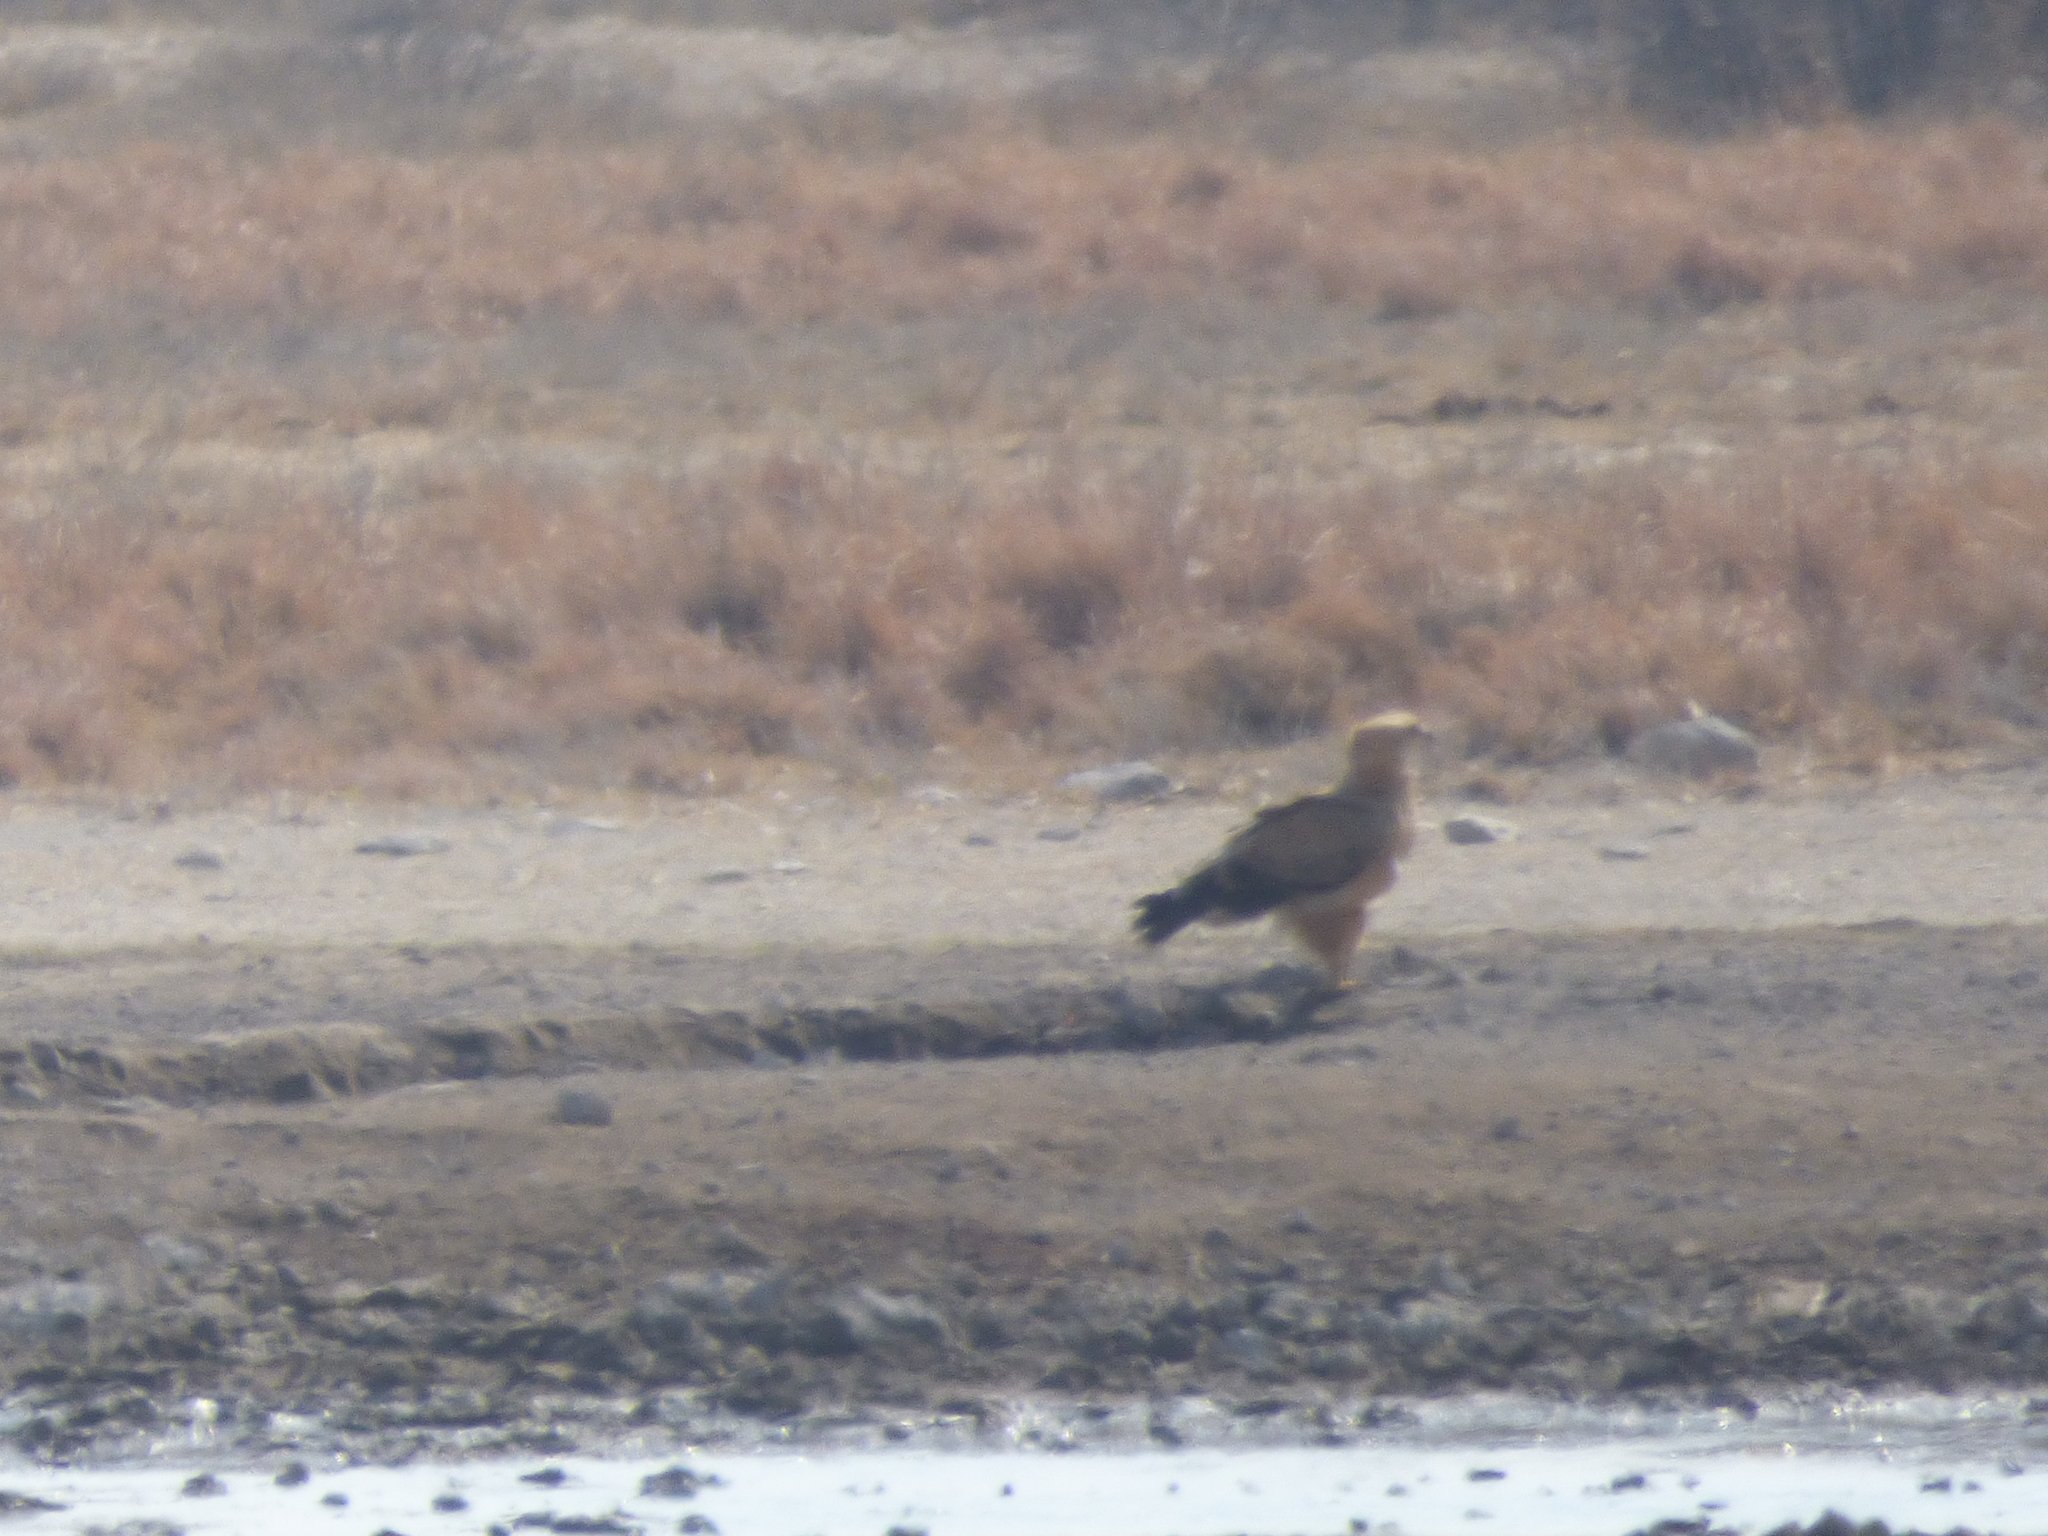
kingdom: Animalia
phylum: Chordata
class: Aves
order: Accipitriformes
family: Accipitridae
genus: Aquila
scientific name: Aquila rapax
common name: Tawny eagle
